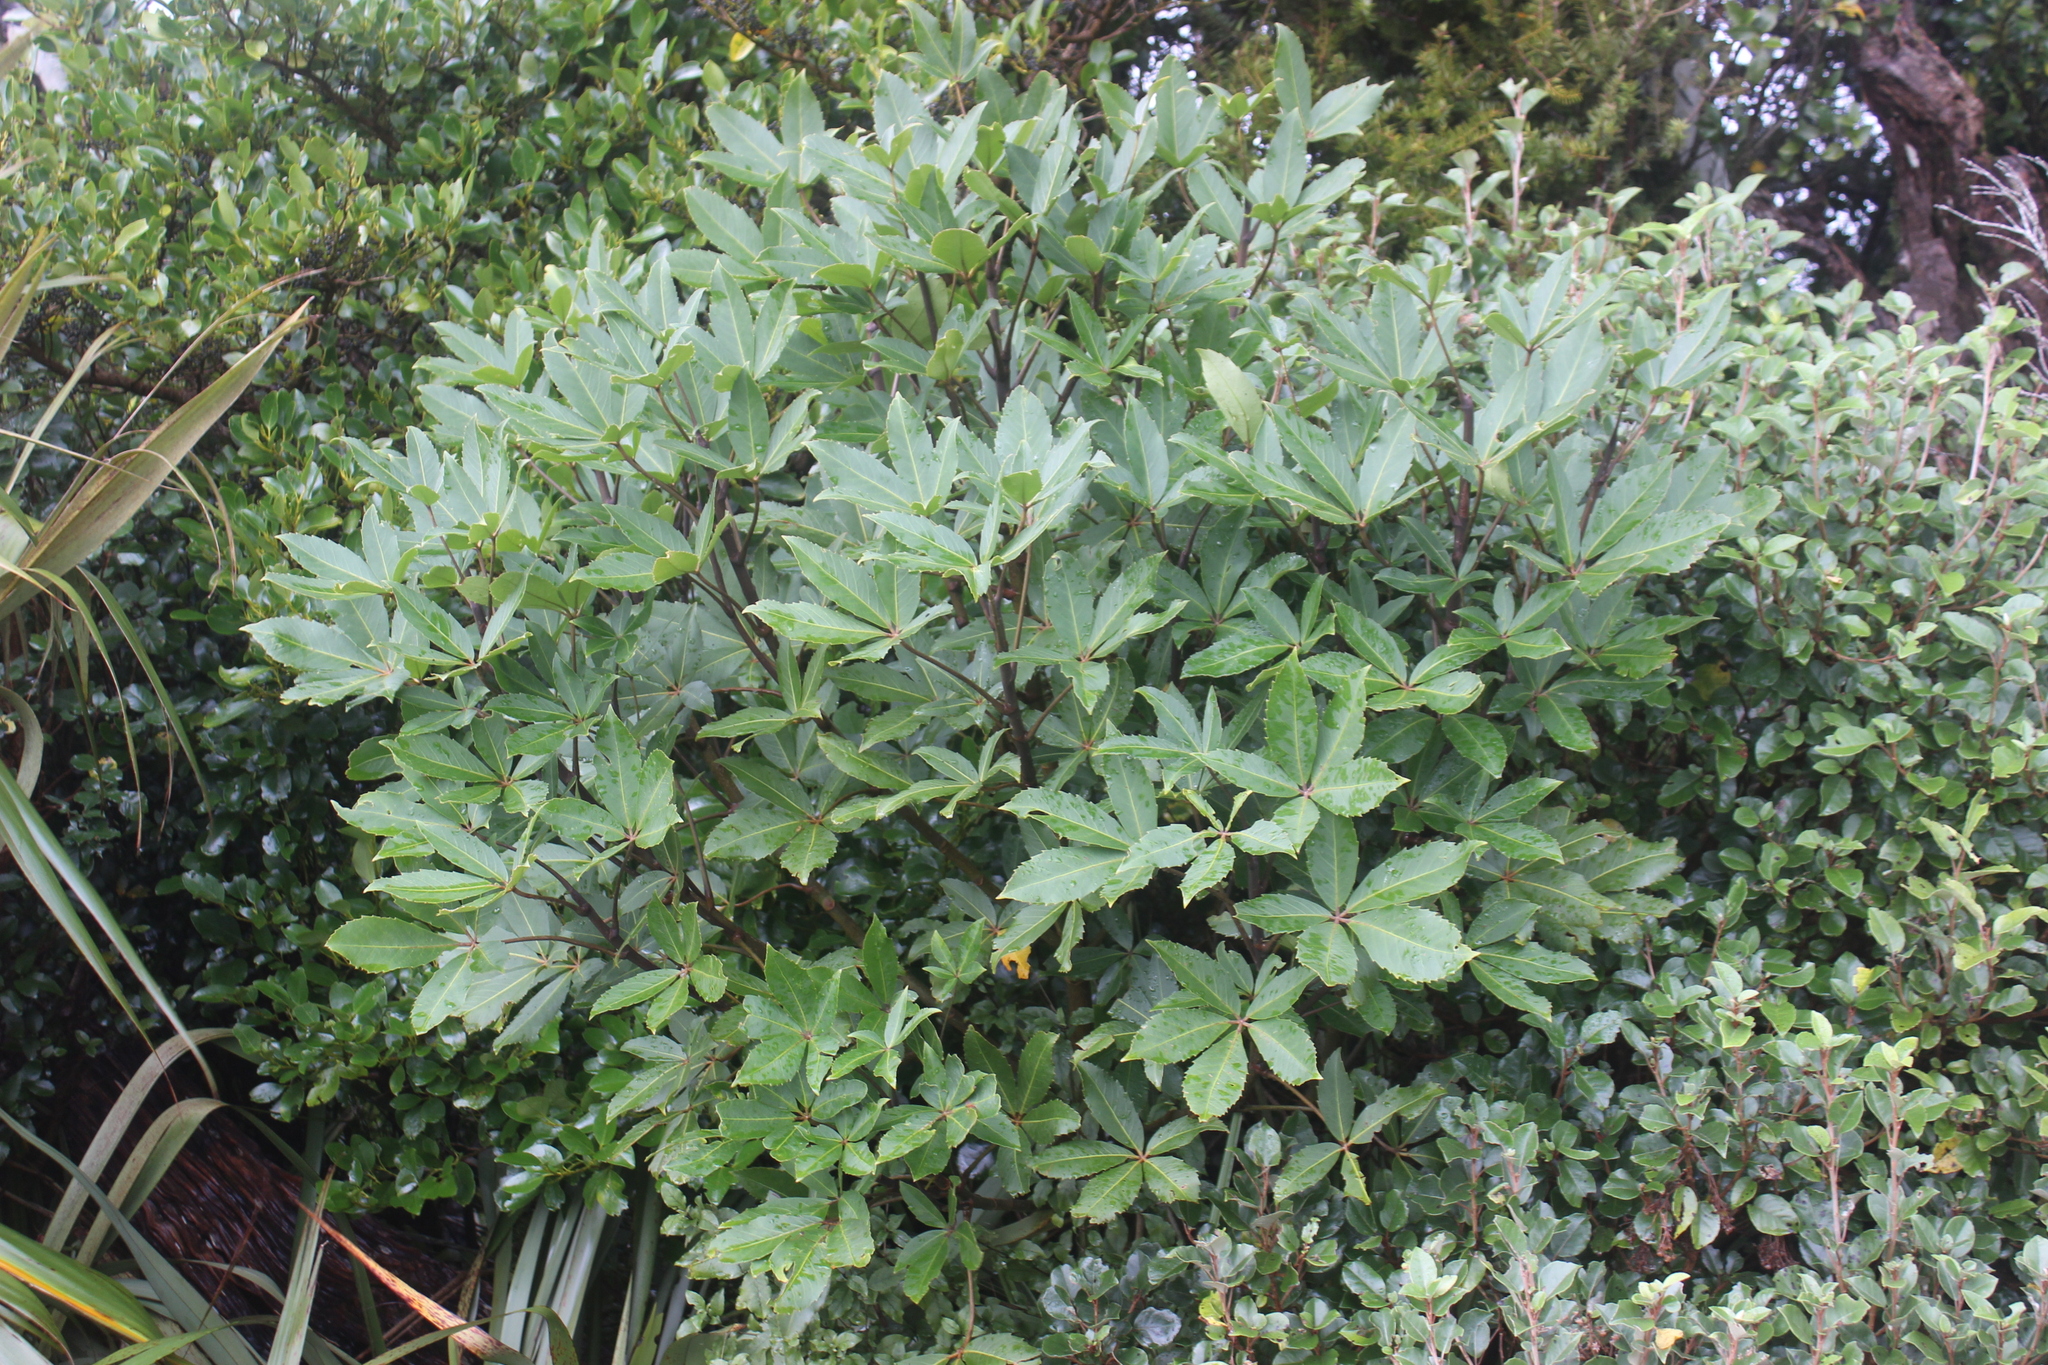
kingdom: Plantae
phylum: Tracheophyta
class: Magnoliopsida
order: Apiales
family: Araliaceae
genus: Neopanax
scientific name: Neopanax colensoi
